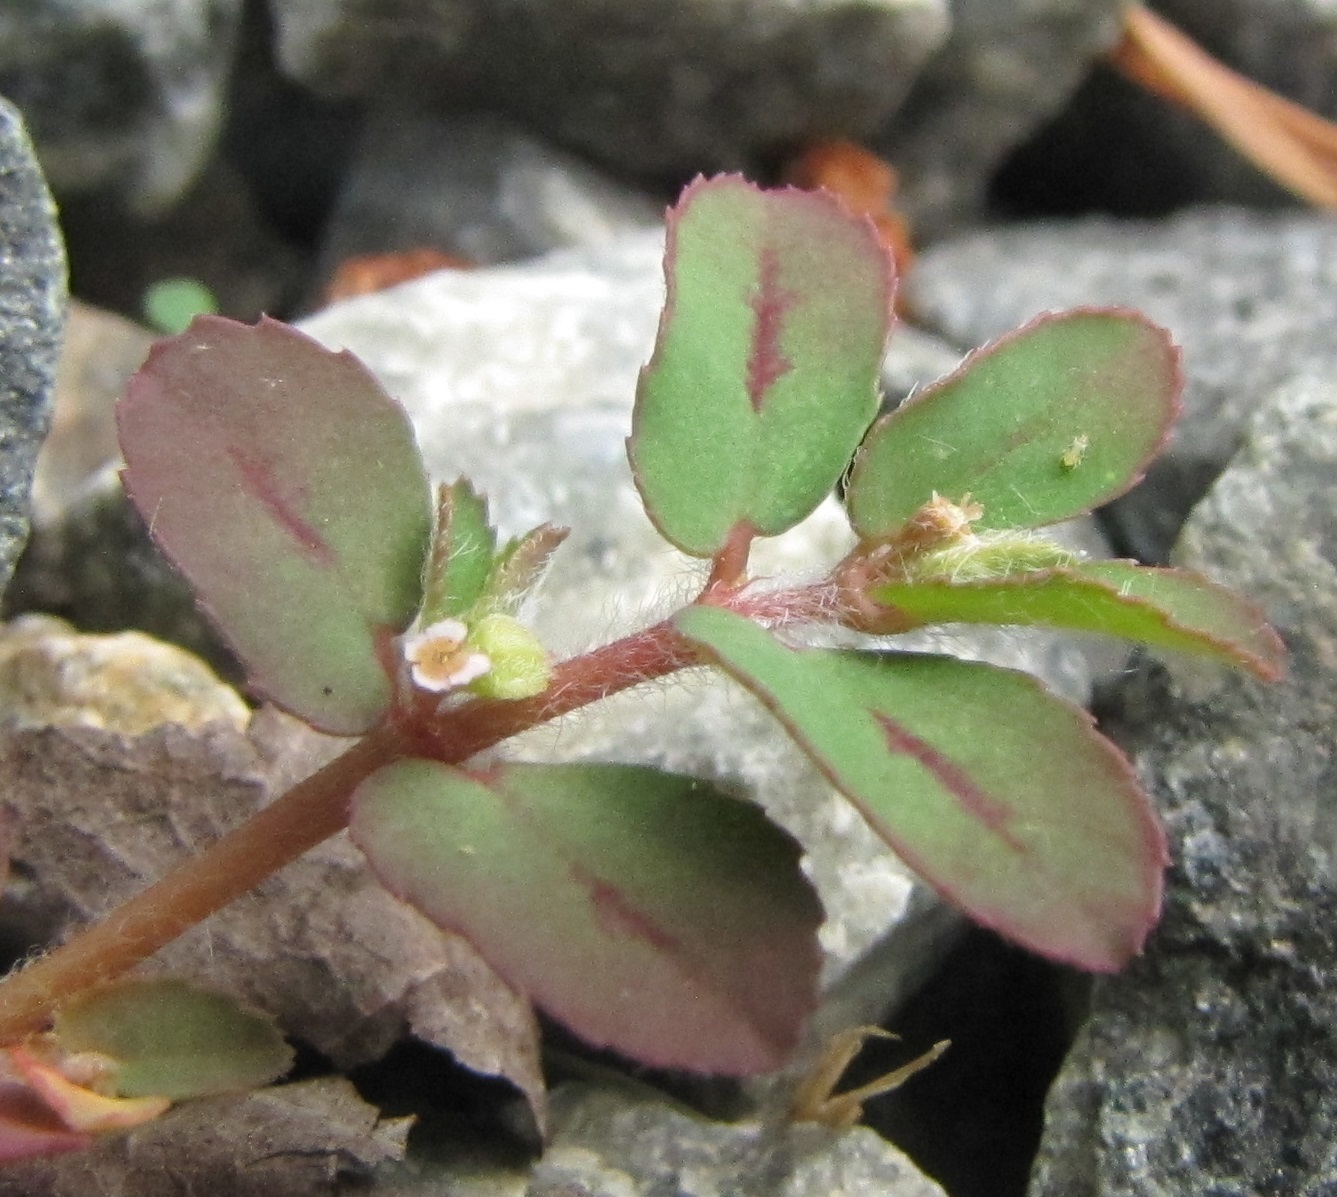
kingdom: Plantae
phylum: Tracheophyta
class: Magnoliopsida
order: Malpighiales
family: Euphorbiaceae
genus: Euphorbia
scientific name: Euphorbia maculata
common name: Spotted spurge
